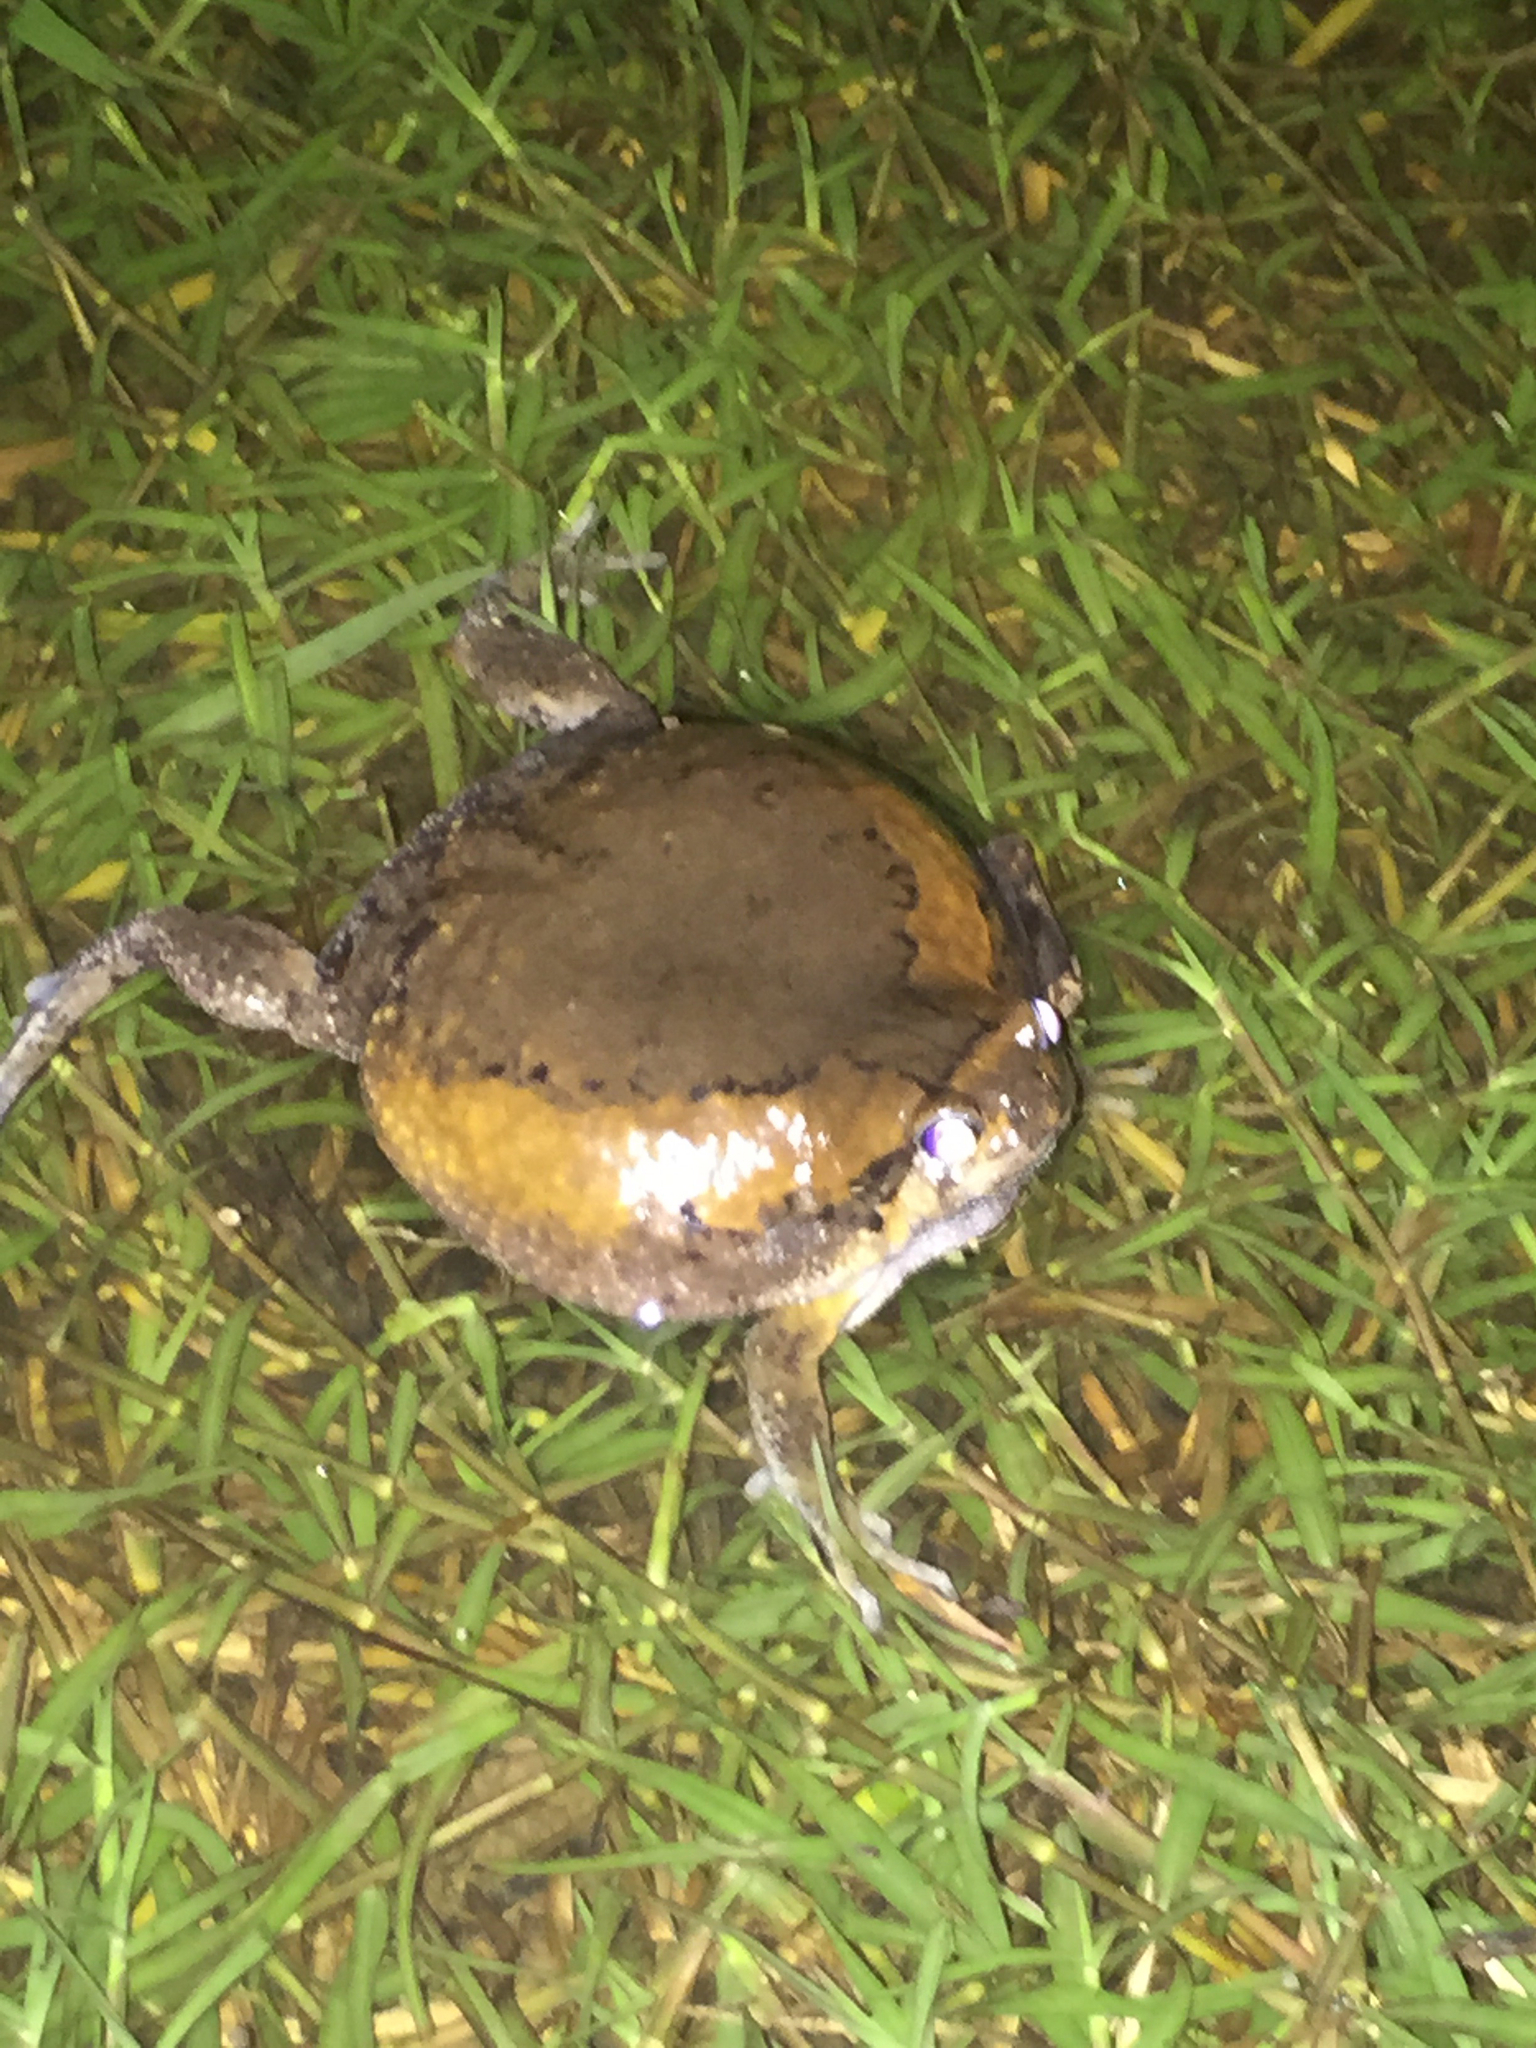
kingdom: Animalia
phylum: Chordata
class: Amphibia
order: Anura
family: Microhylidae
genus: Kaloula
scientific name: Kaloula pulchra
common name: Common,banded bullfrog
